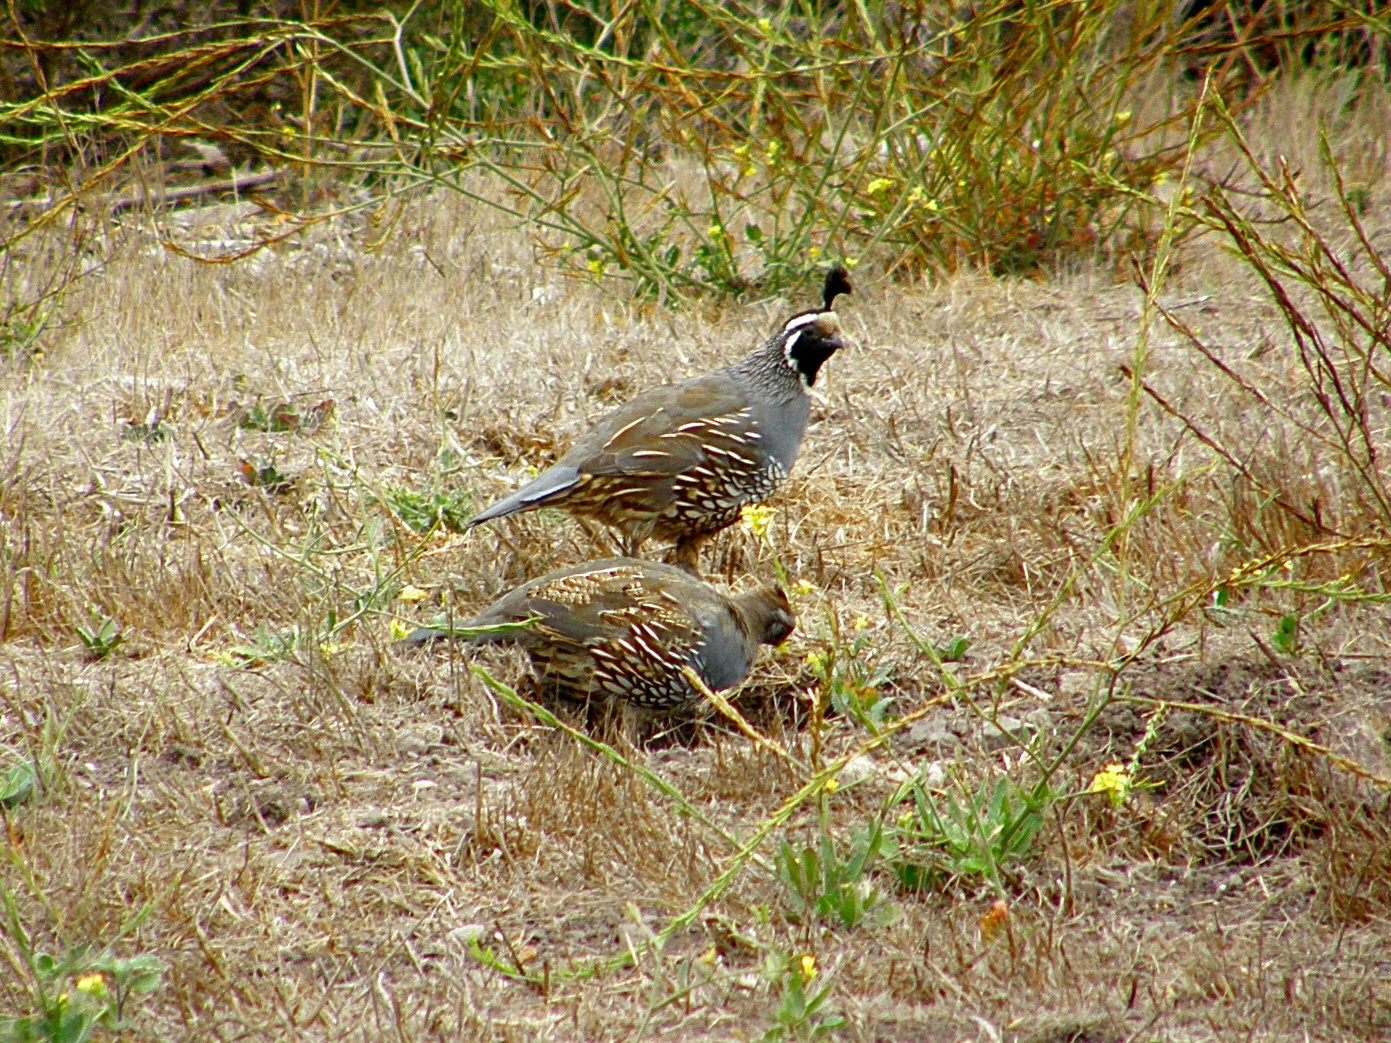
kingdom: Animalia
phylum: Chordata
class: Aves
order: Galliformes
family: Odontophoridae
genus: Callipepla
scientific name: Callipepla californica
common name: California quail
